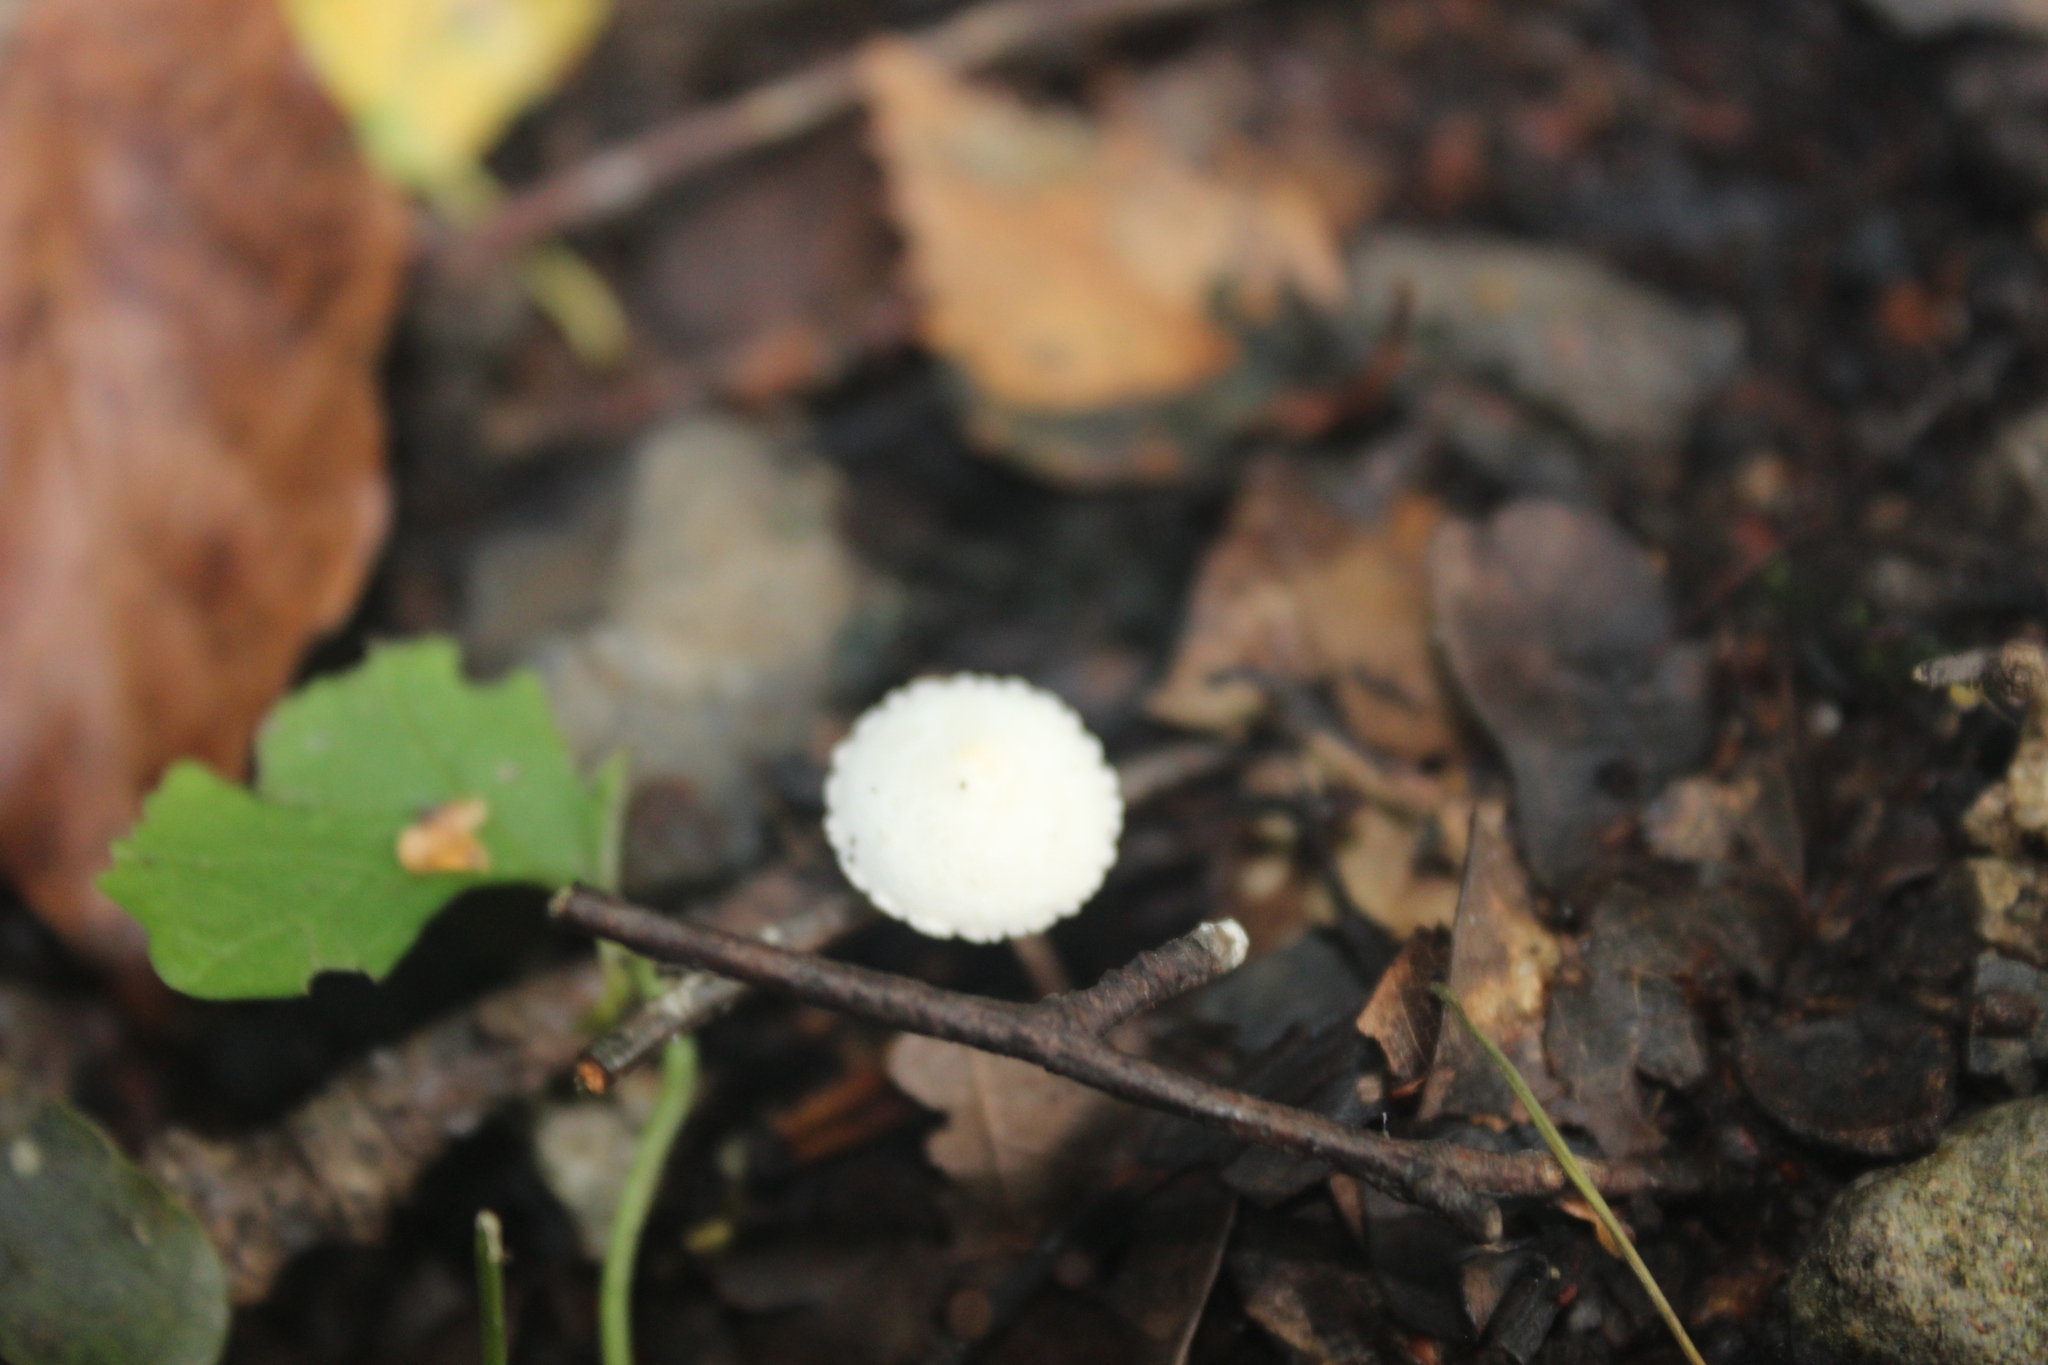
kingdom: Fungi
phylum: Basidiomycota
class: Agaricomycetes
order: Agaricales
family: Agaricaceae
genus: Cystolepiota
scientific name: Cystolepiota seminuda
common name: Bearded dapperling
